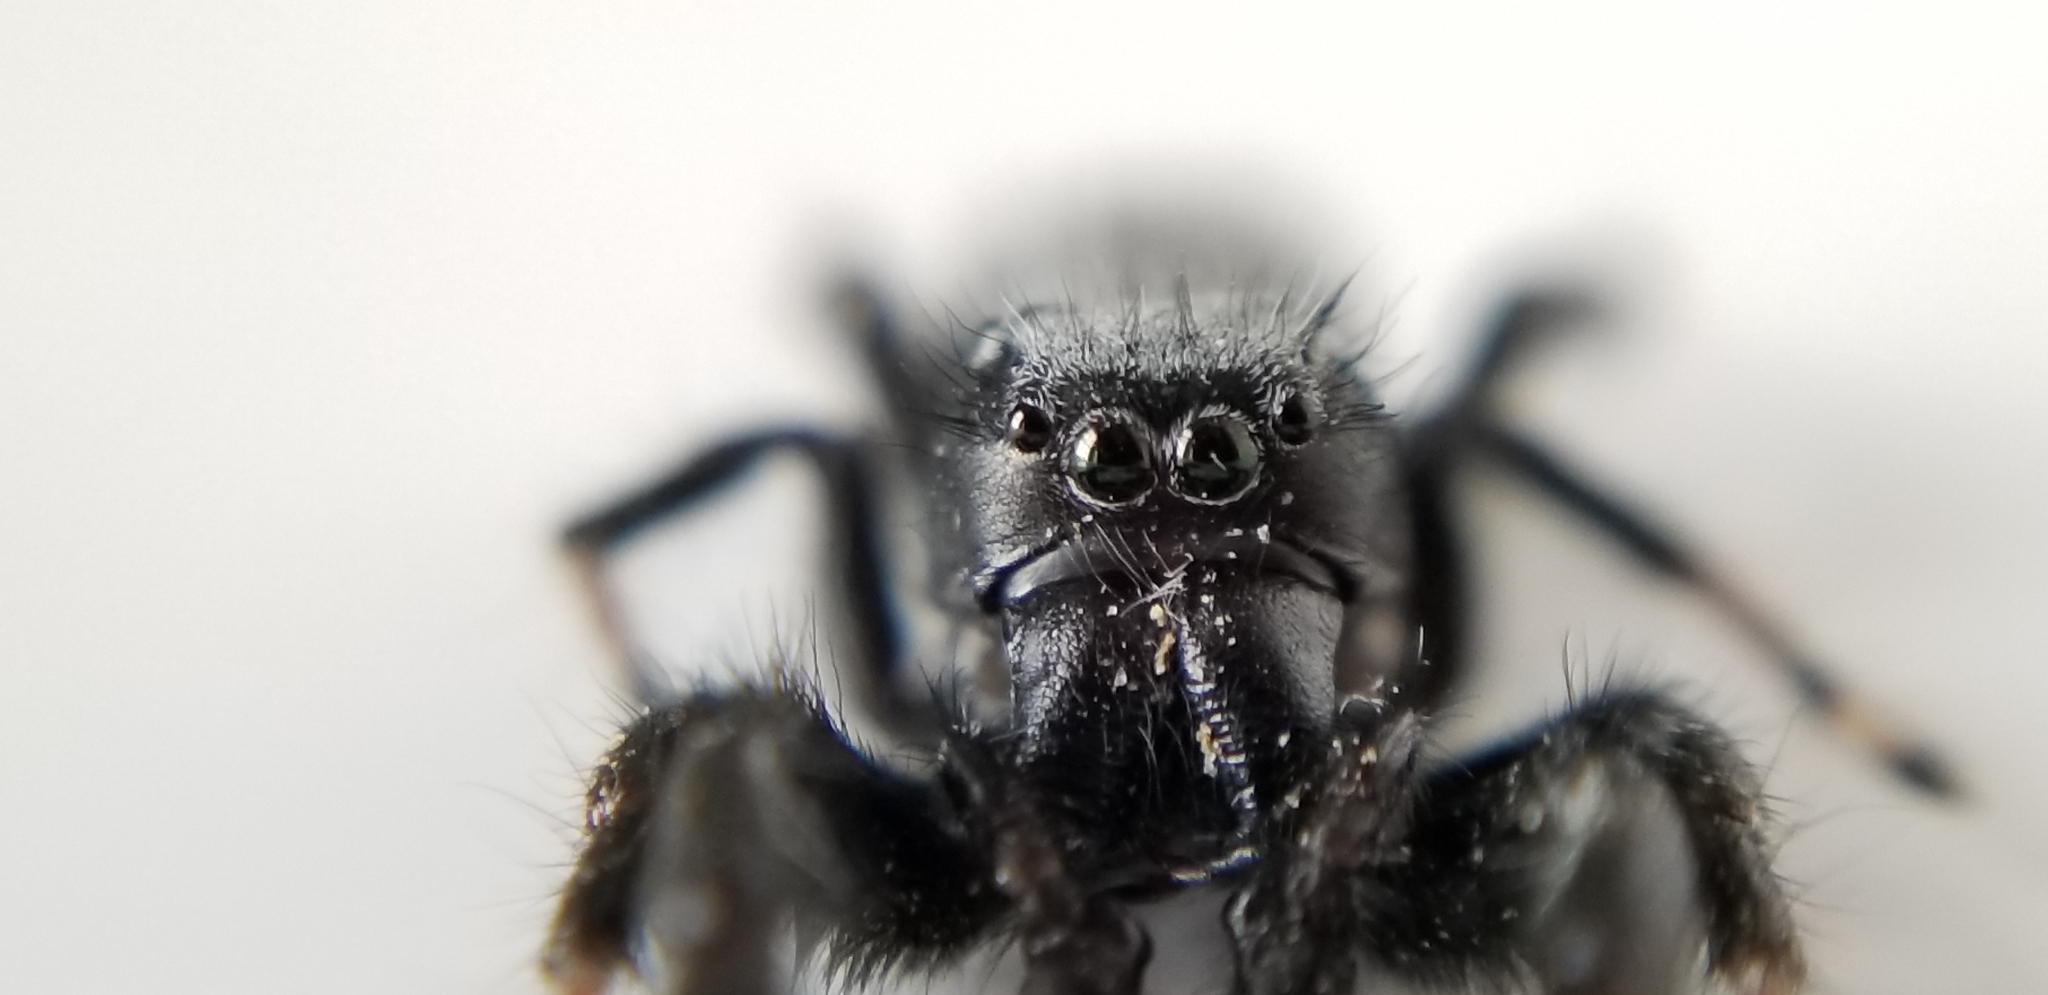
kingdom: Animalia
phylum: Arthropoda
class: Arachnida
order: Araneae
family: Salticidae
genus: Phidippus
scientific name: Phidippus octopunctatus
